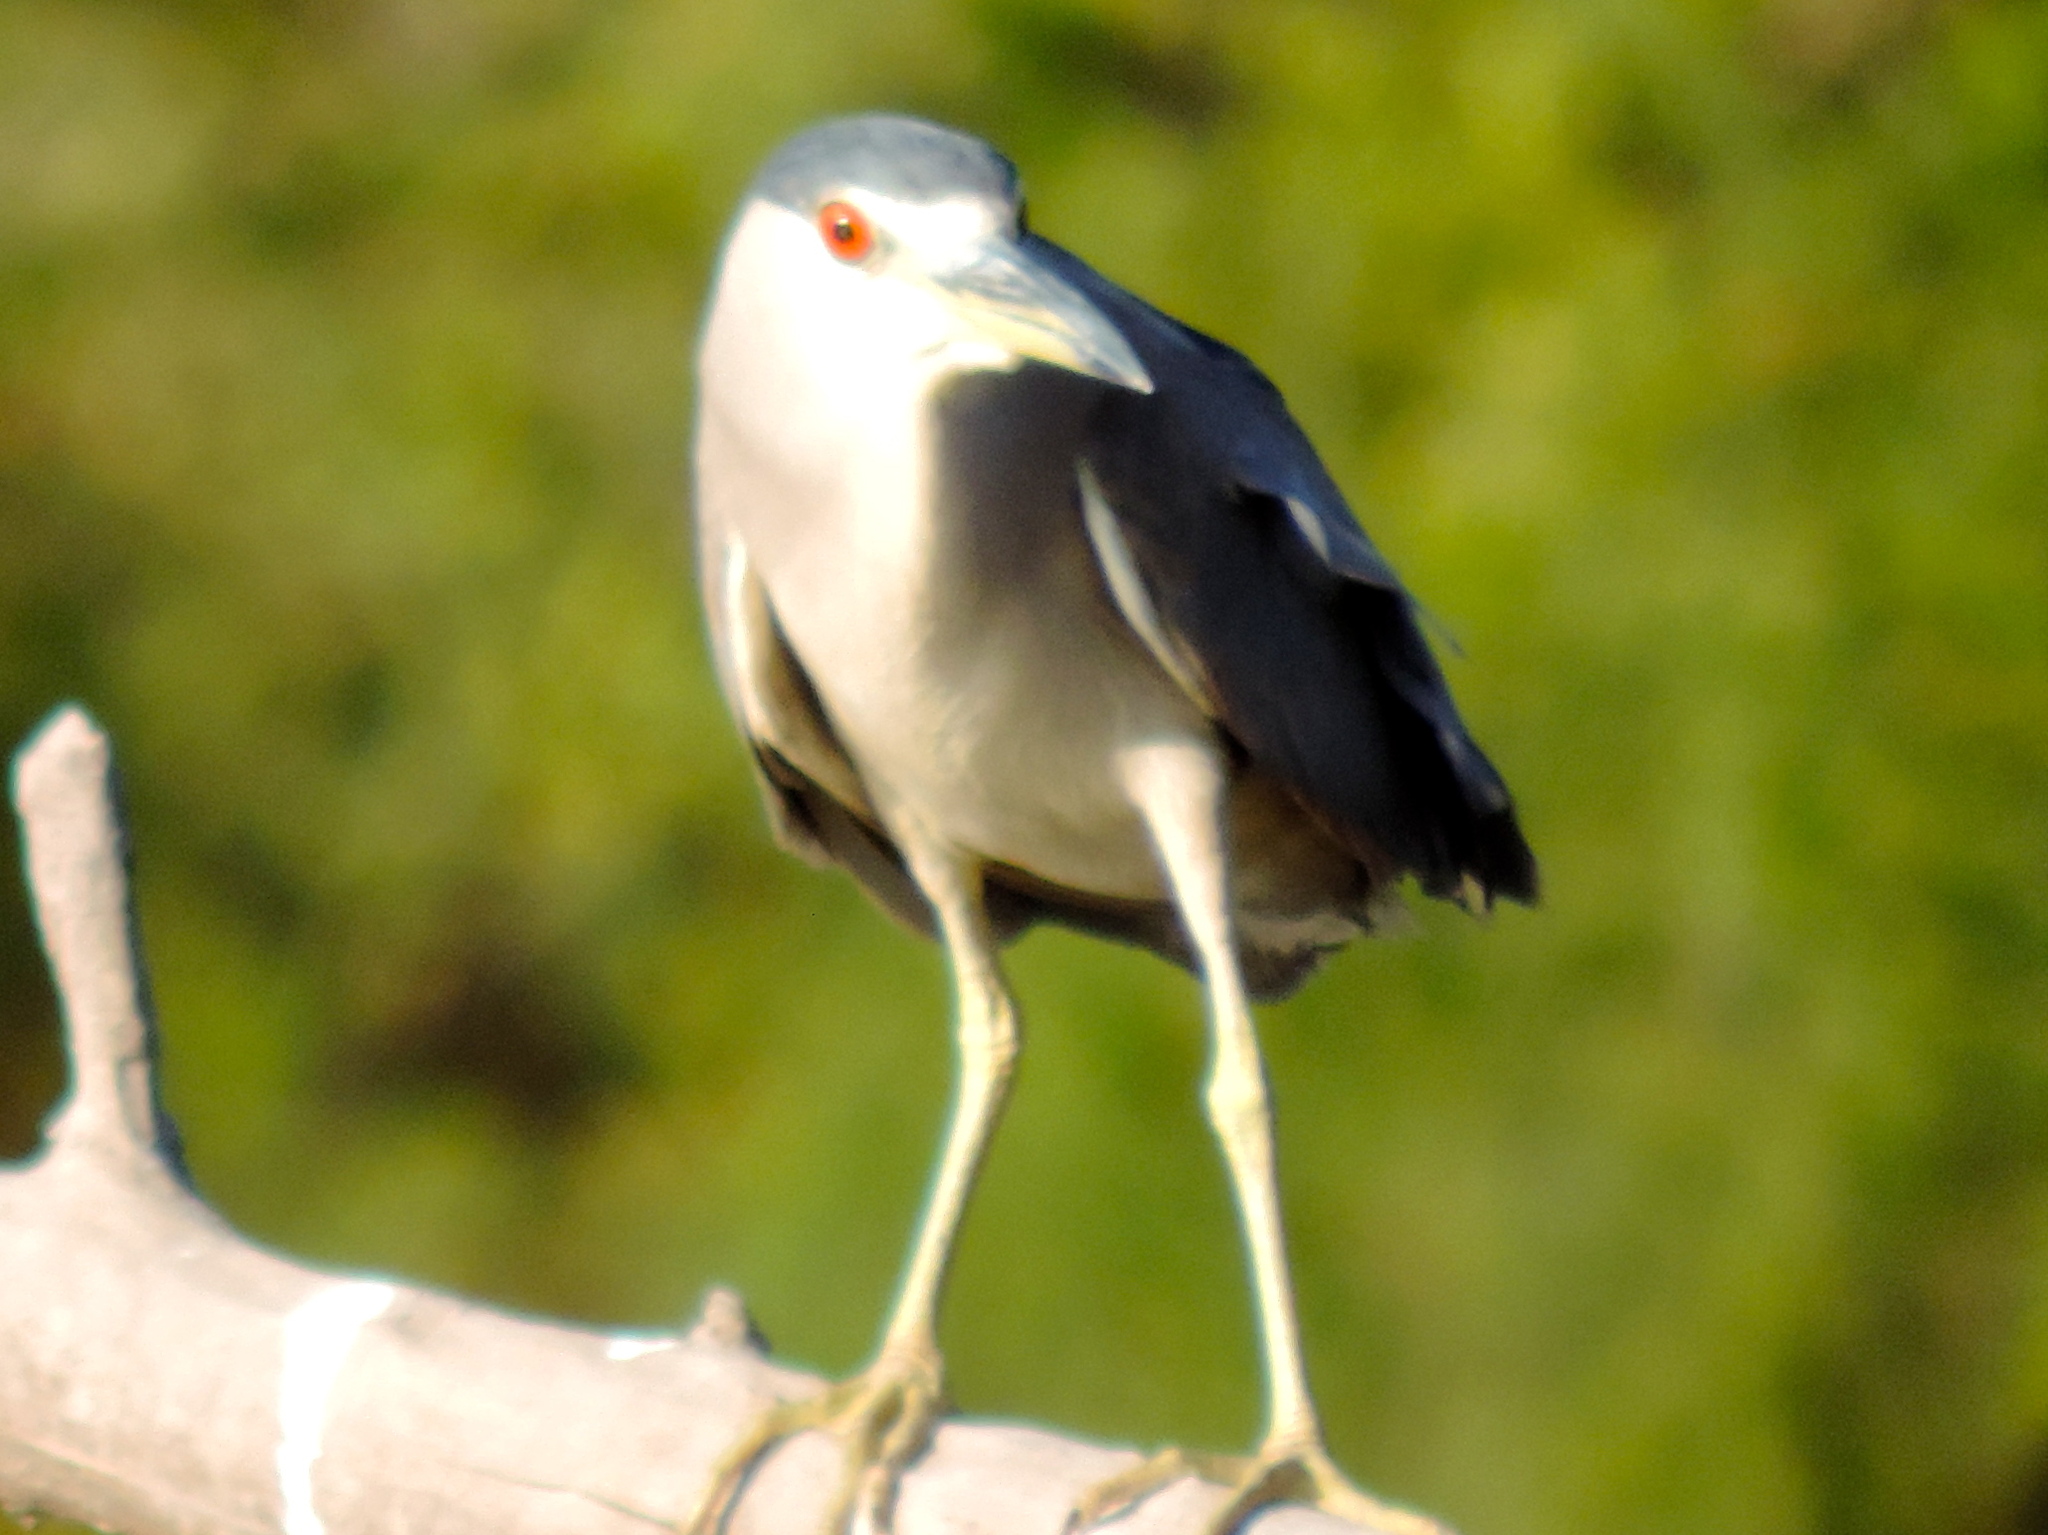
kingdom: Animalia
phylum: Chordata
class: Aves
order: Pelecaniformes
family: Ardeidae
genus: Nycticorax
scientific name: Nycticorax nycticorax
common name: Black-crowned night heron
